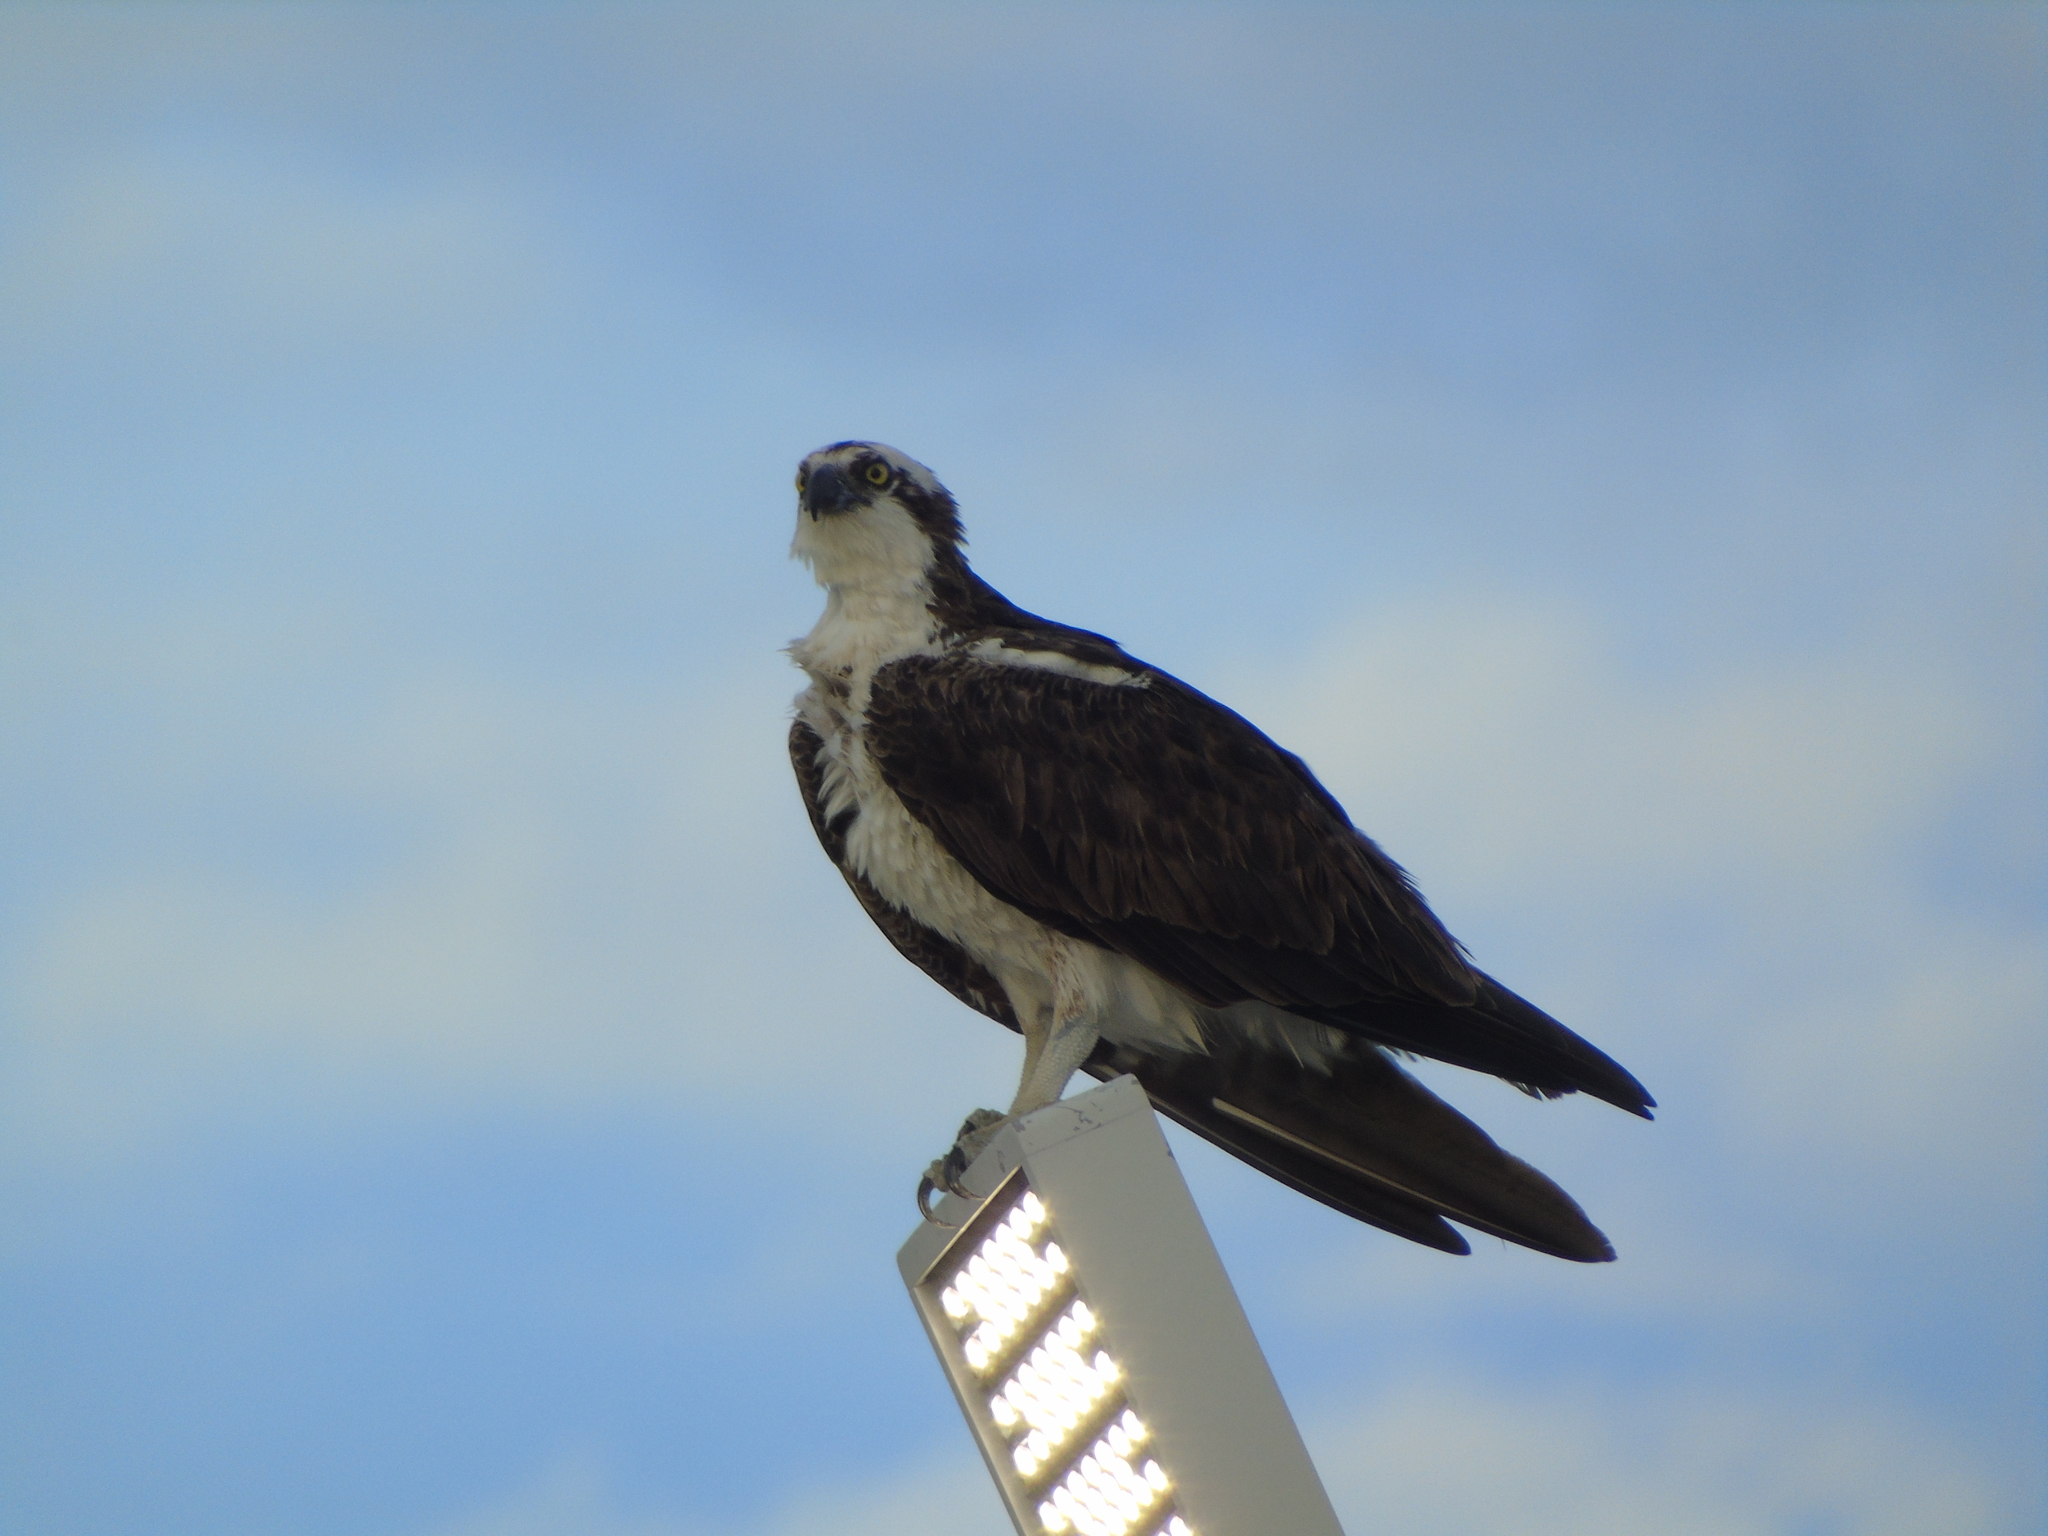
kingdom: Animalia
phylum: Chordata
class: Aves
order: Accipitriformes
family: Pandionidae
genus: Pandion
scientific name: Pandion haliaetus
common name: Osprey
